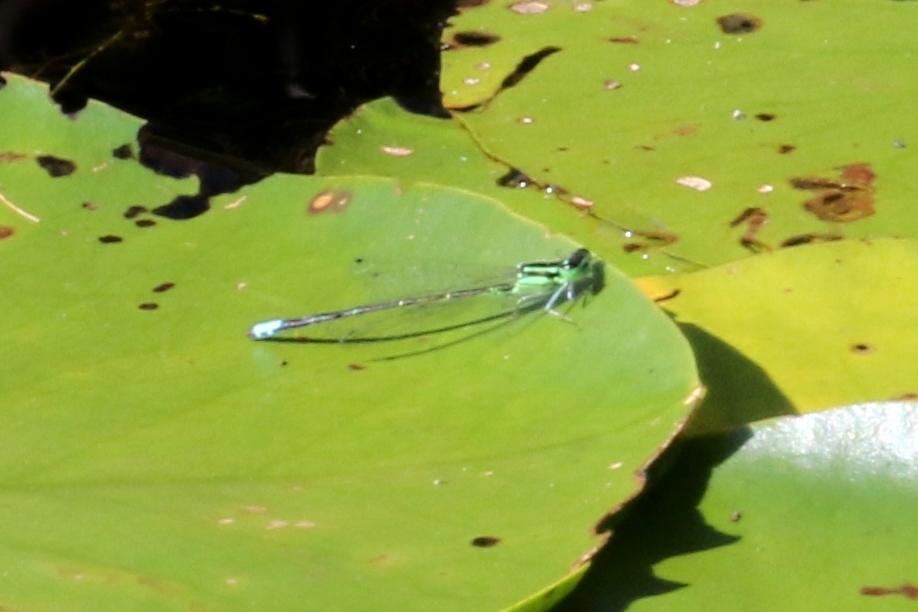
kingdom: Animalia
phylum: Arthropoda
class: Insecta
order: Odonata
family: Coenagrionidae
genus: Ischnura
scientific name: Ischnura verticalis
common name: Eastern forktail
